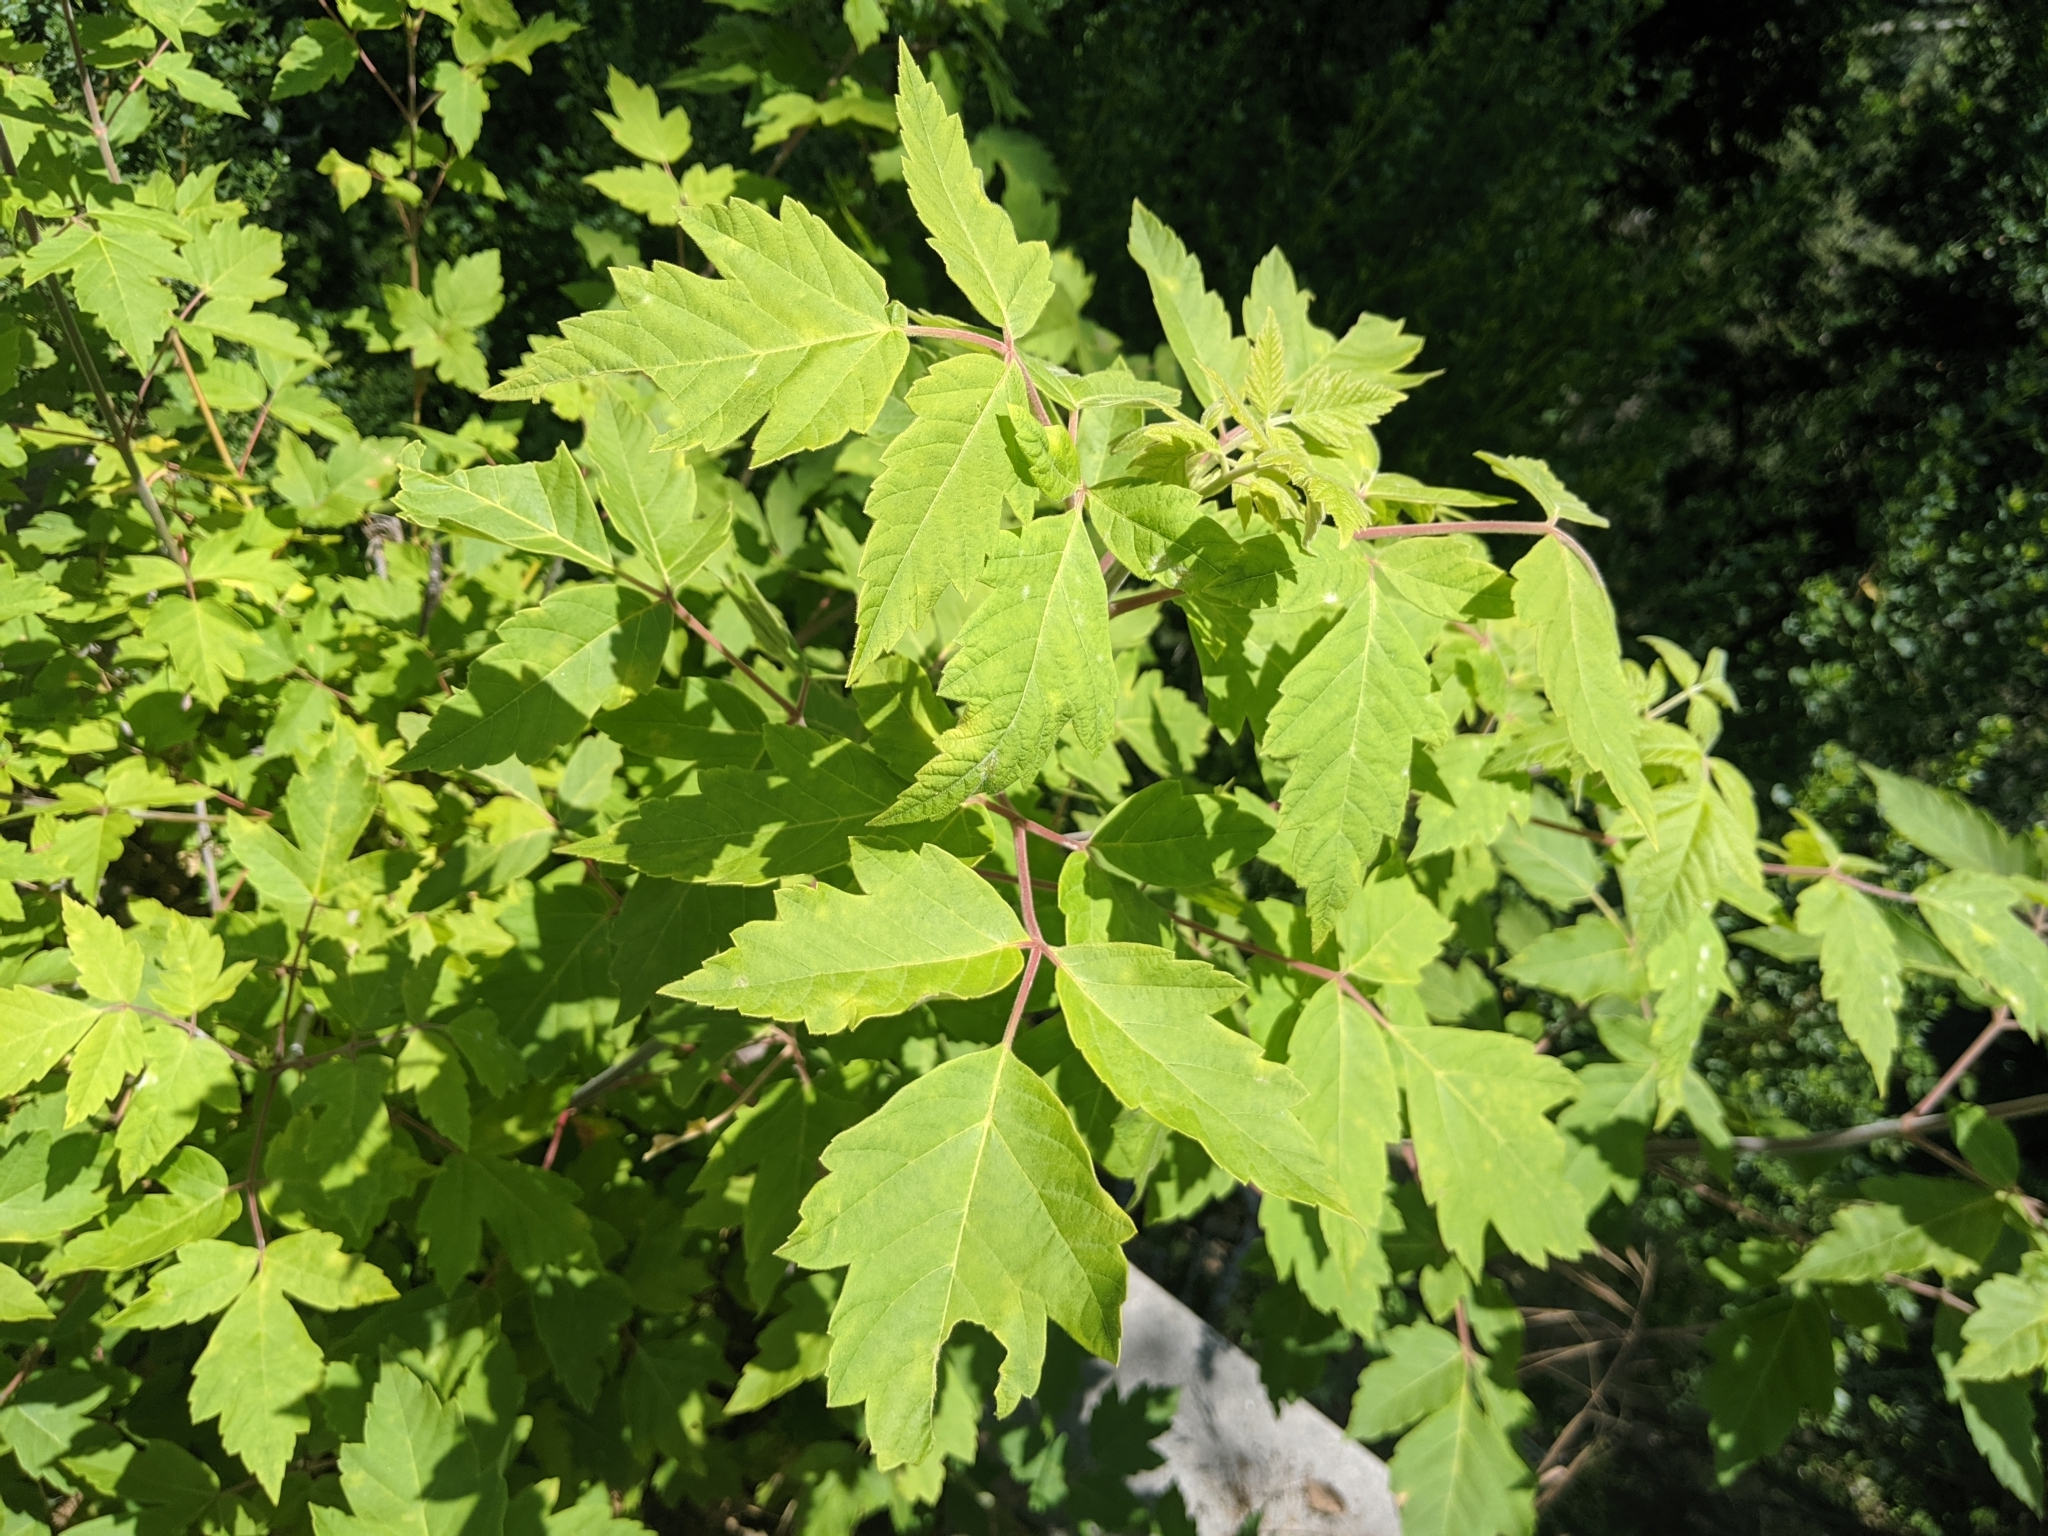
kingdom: Plantae
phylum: Tracheophyta
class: Magnoliopsida
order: Sapindales
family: Sapindaceae
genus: Acer
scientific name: Acer negundo
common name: Ashleaf maple
